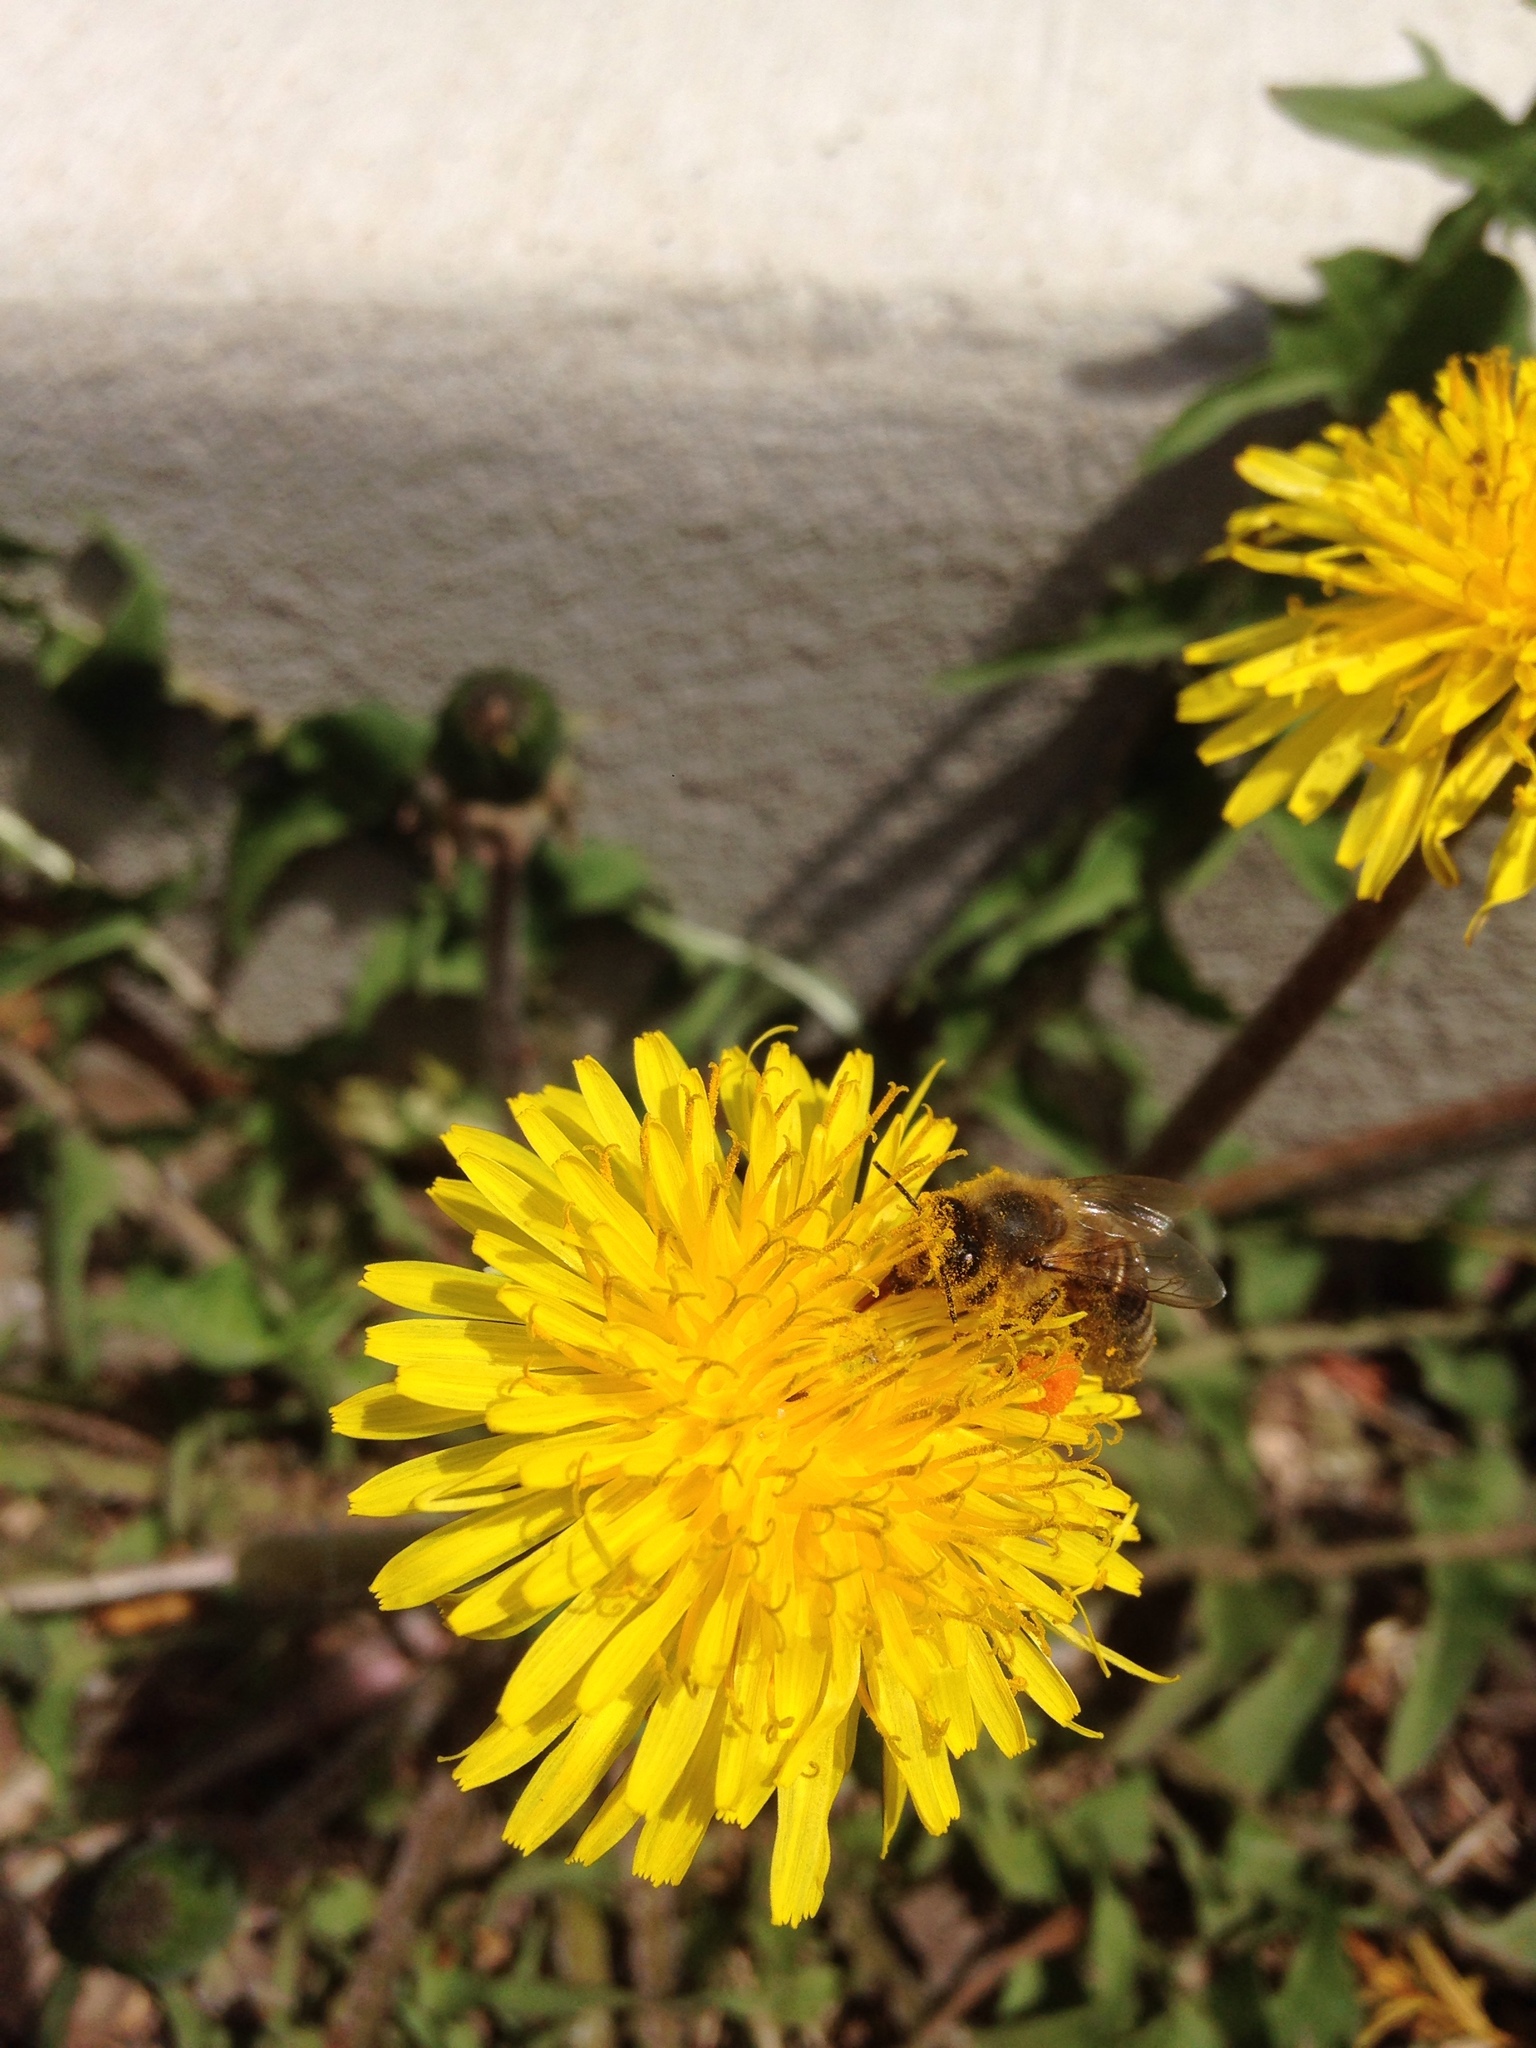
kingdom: Animalia
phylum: Arthropoda
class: Insecta
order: Hymenoptera
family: Apidae
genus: Apis
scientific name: Apis mellifera
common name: Honey bee
